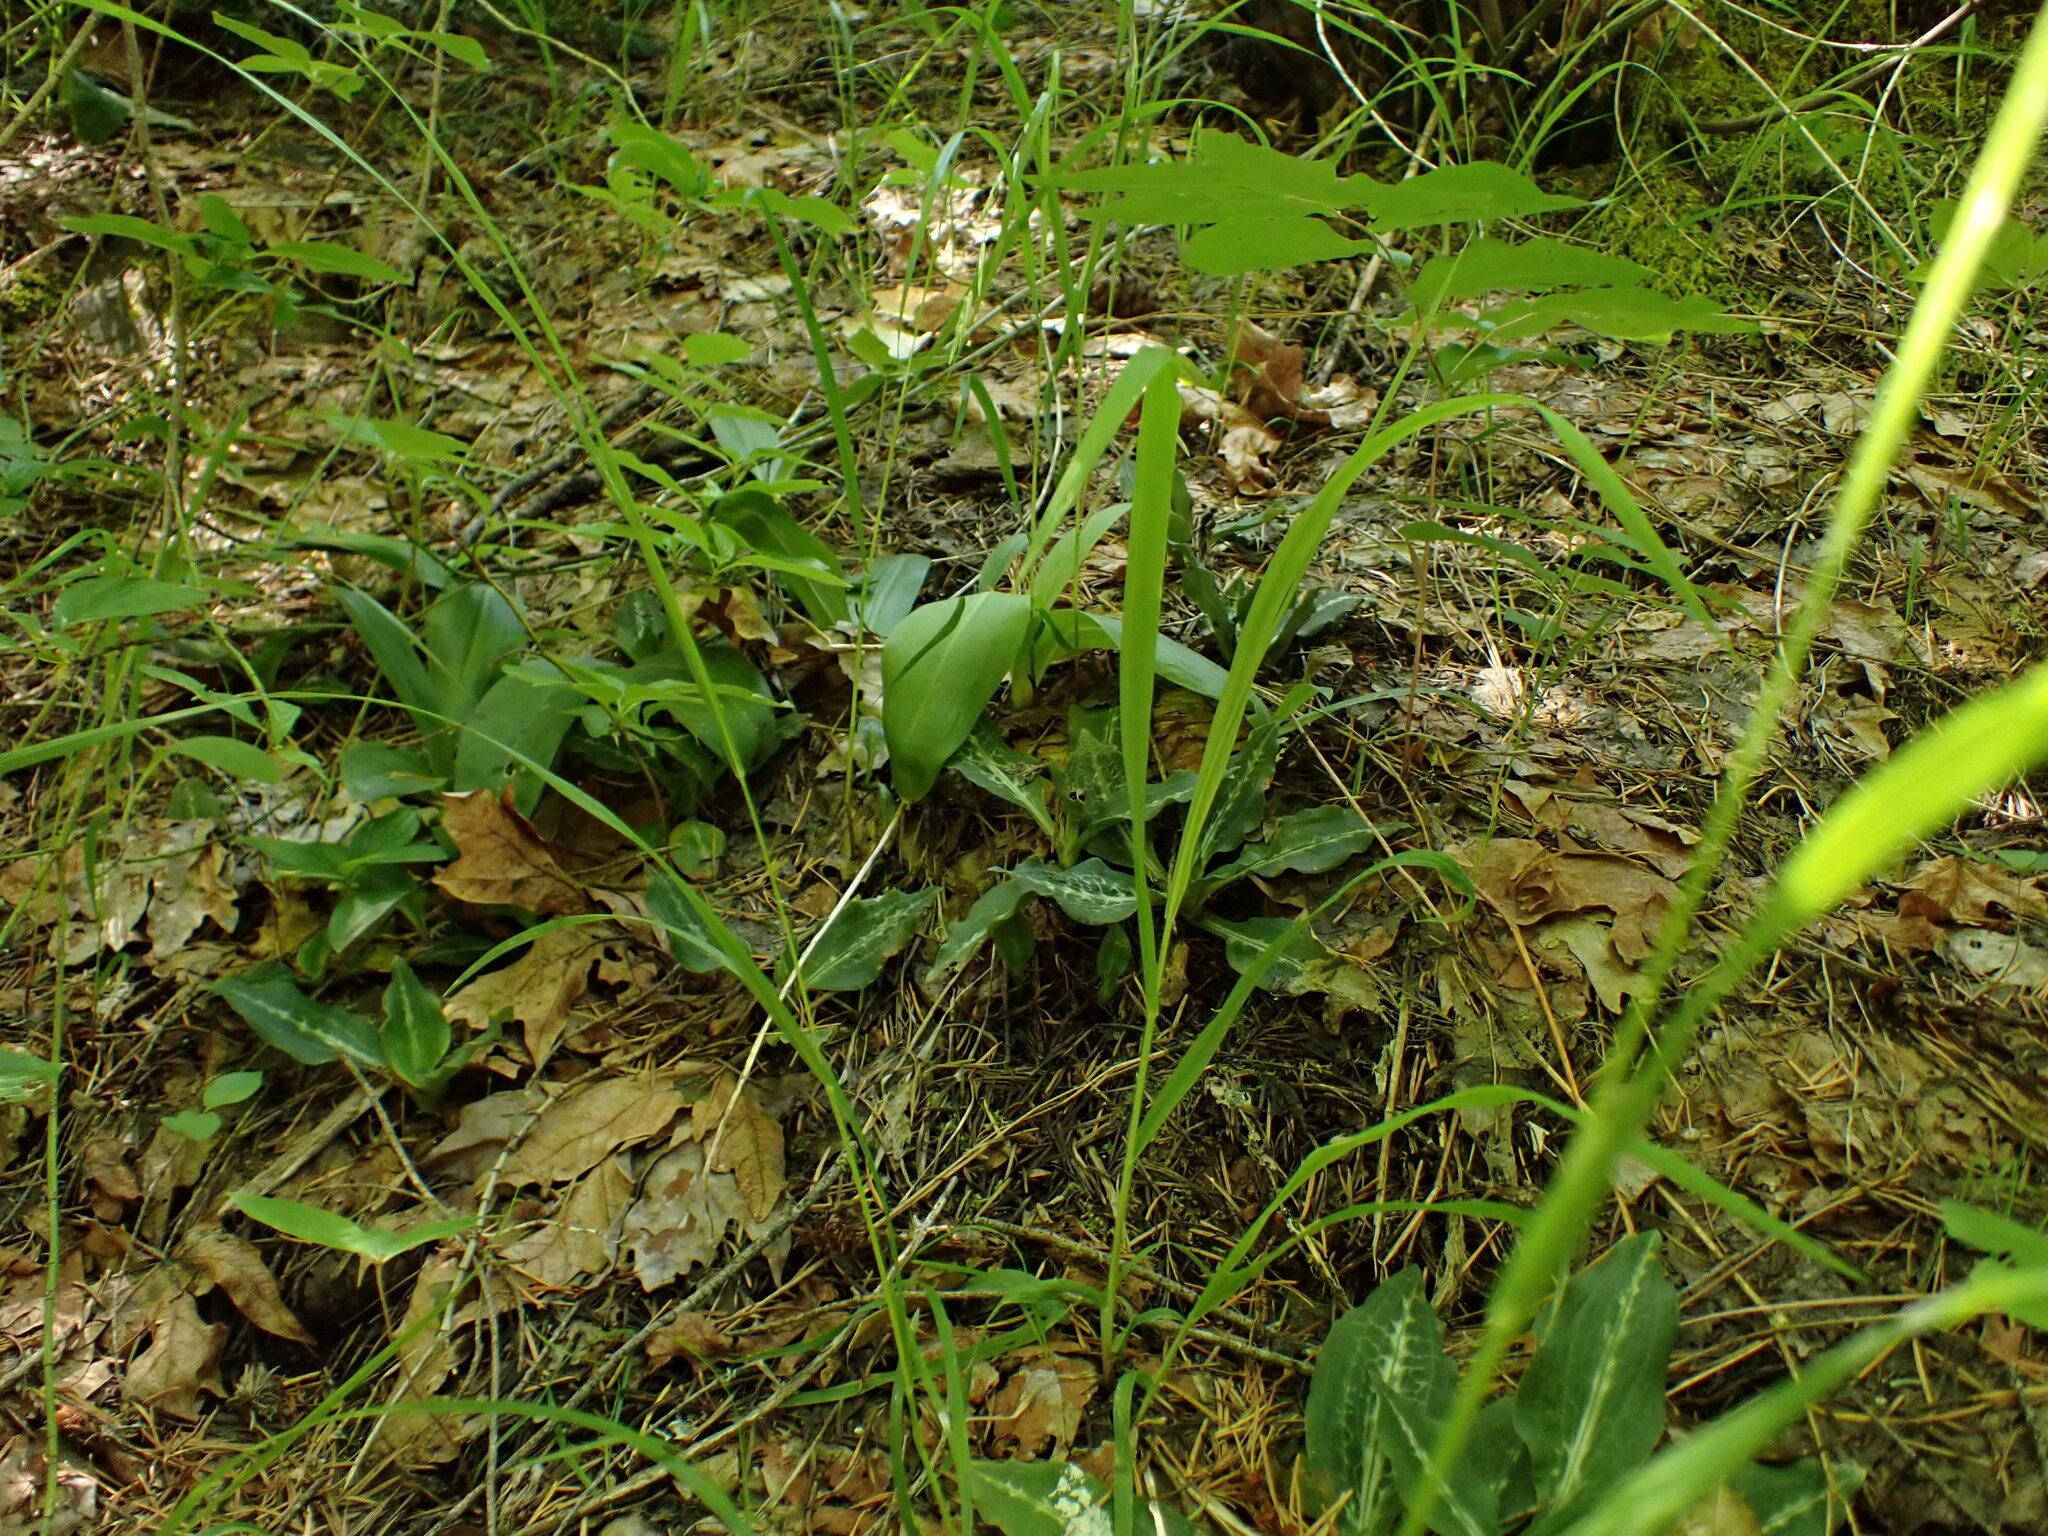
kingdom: Plantae
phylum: Tracheophyta
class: Liliopsida
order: Asparagales
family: Orchidaceae
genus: Goodyera
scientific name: Goodyera oblongifolia
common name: Giant rattlesnake-plantain
